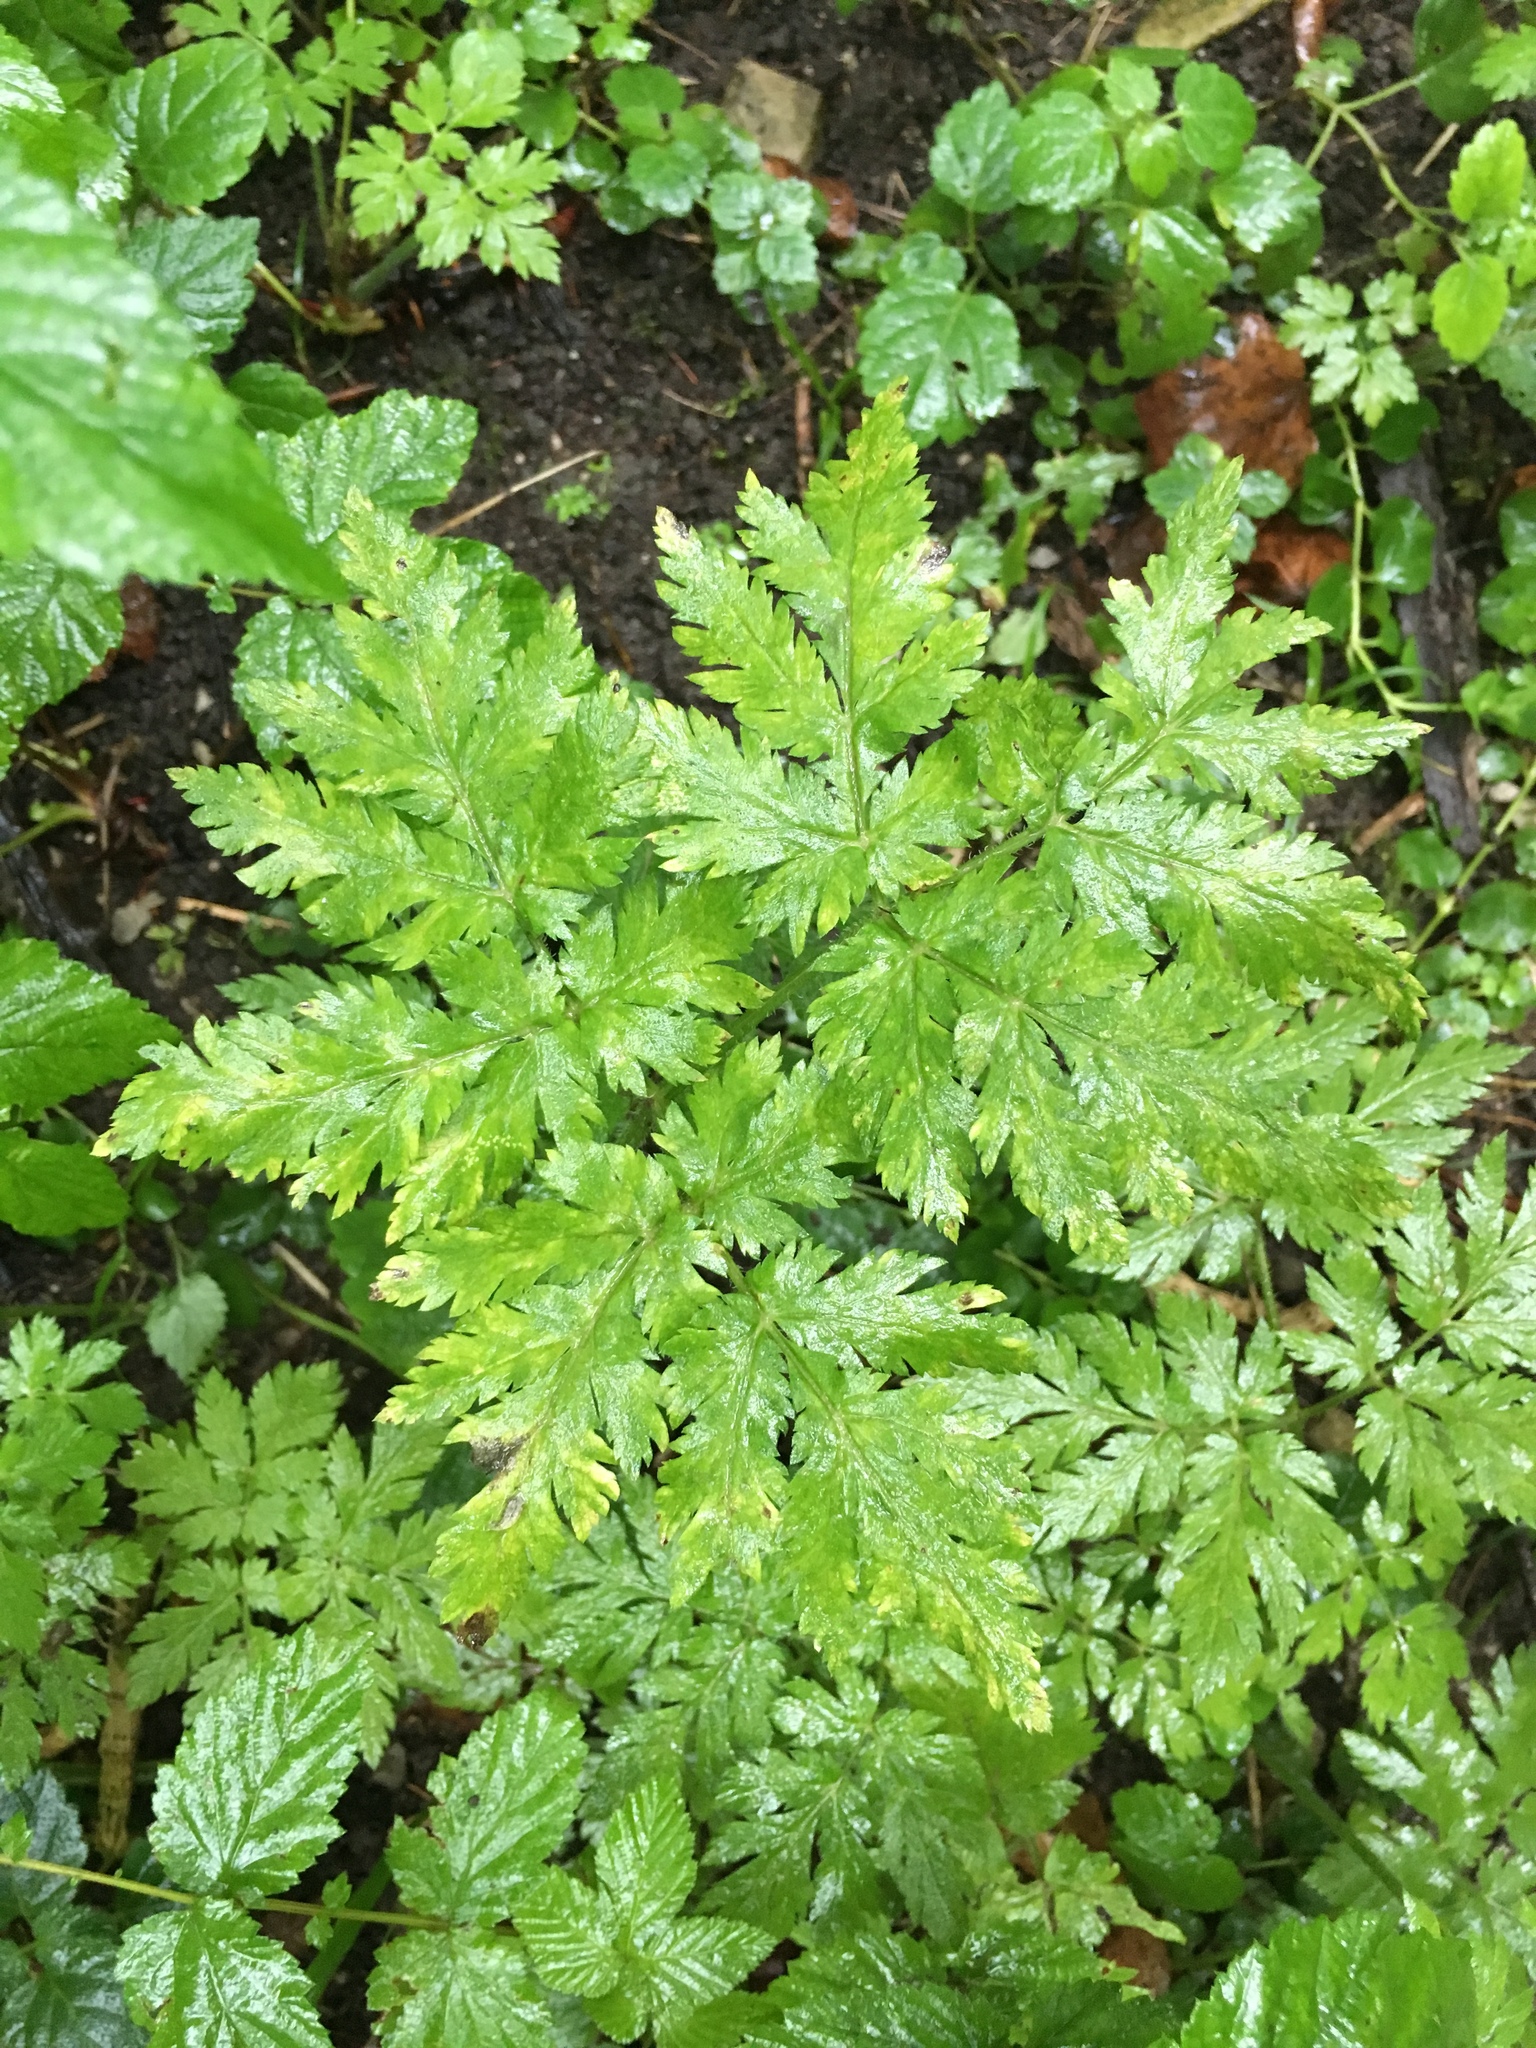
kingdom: Plantae
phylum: Tracheophyta
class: Magnoliopsida
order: Apiales
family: Apiaceae
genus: Chaerophyllum
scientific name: Chaerophyllum hirsutum
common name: Hairy chervil
